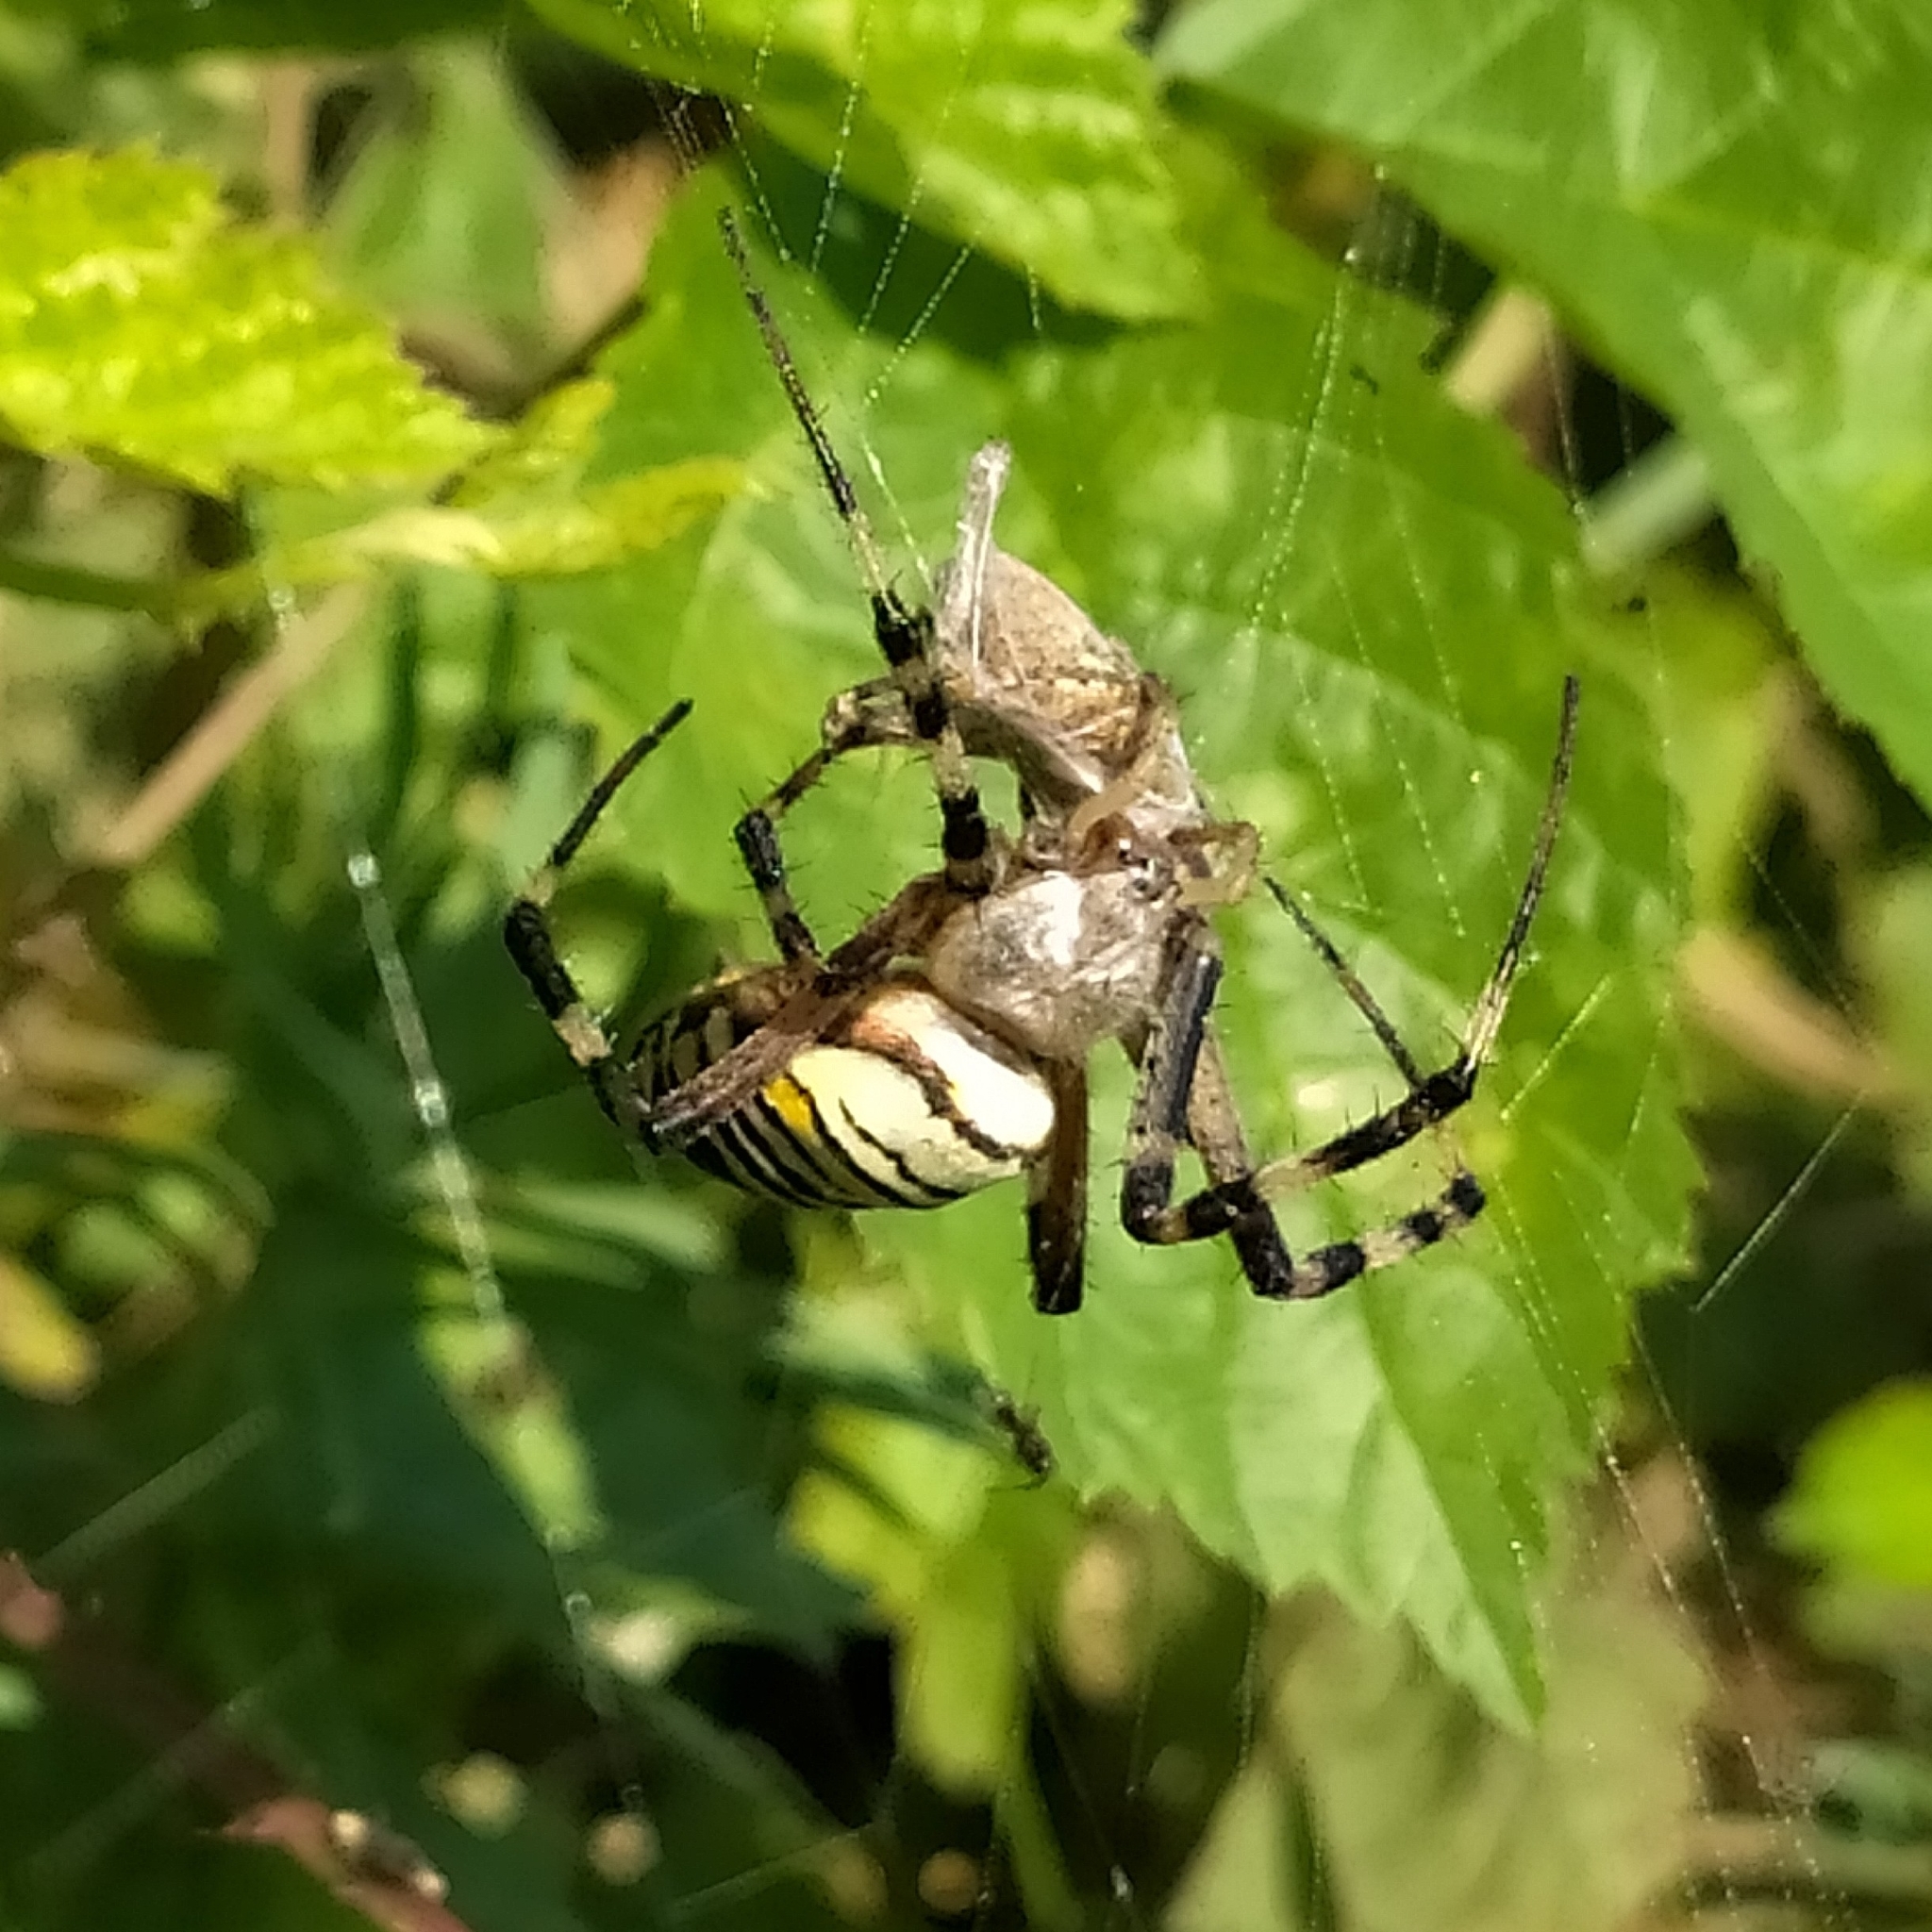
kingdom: Animalia
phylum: Arthropoda
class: Arachnida
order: Araneae
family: Araneidae
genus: Argiope
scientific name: Argiope bruennichi
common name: Wasp spider
